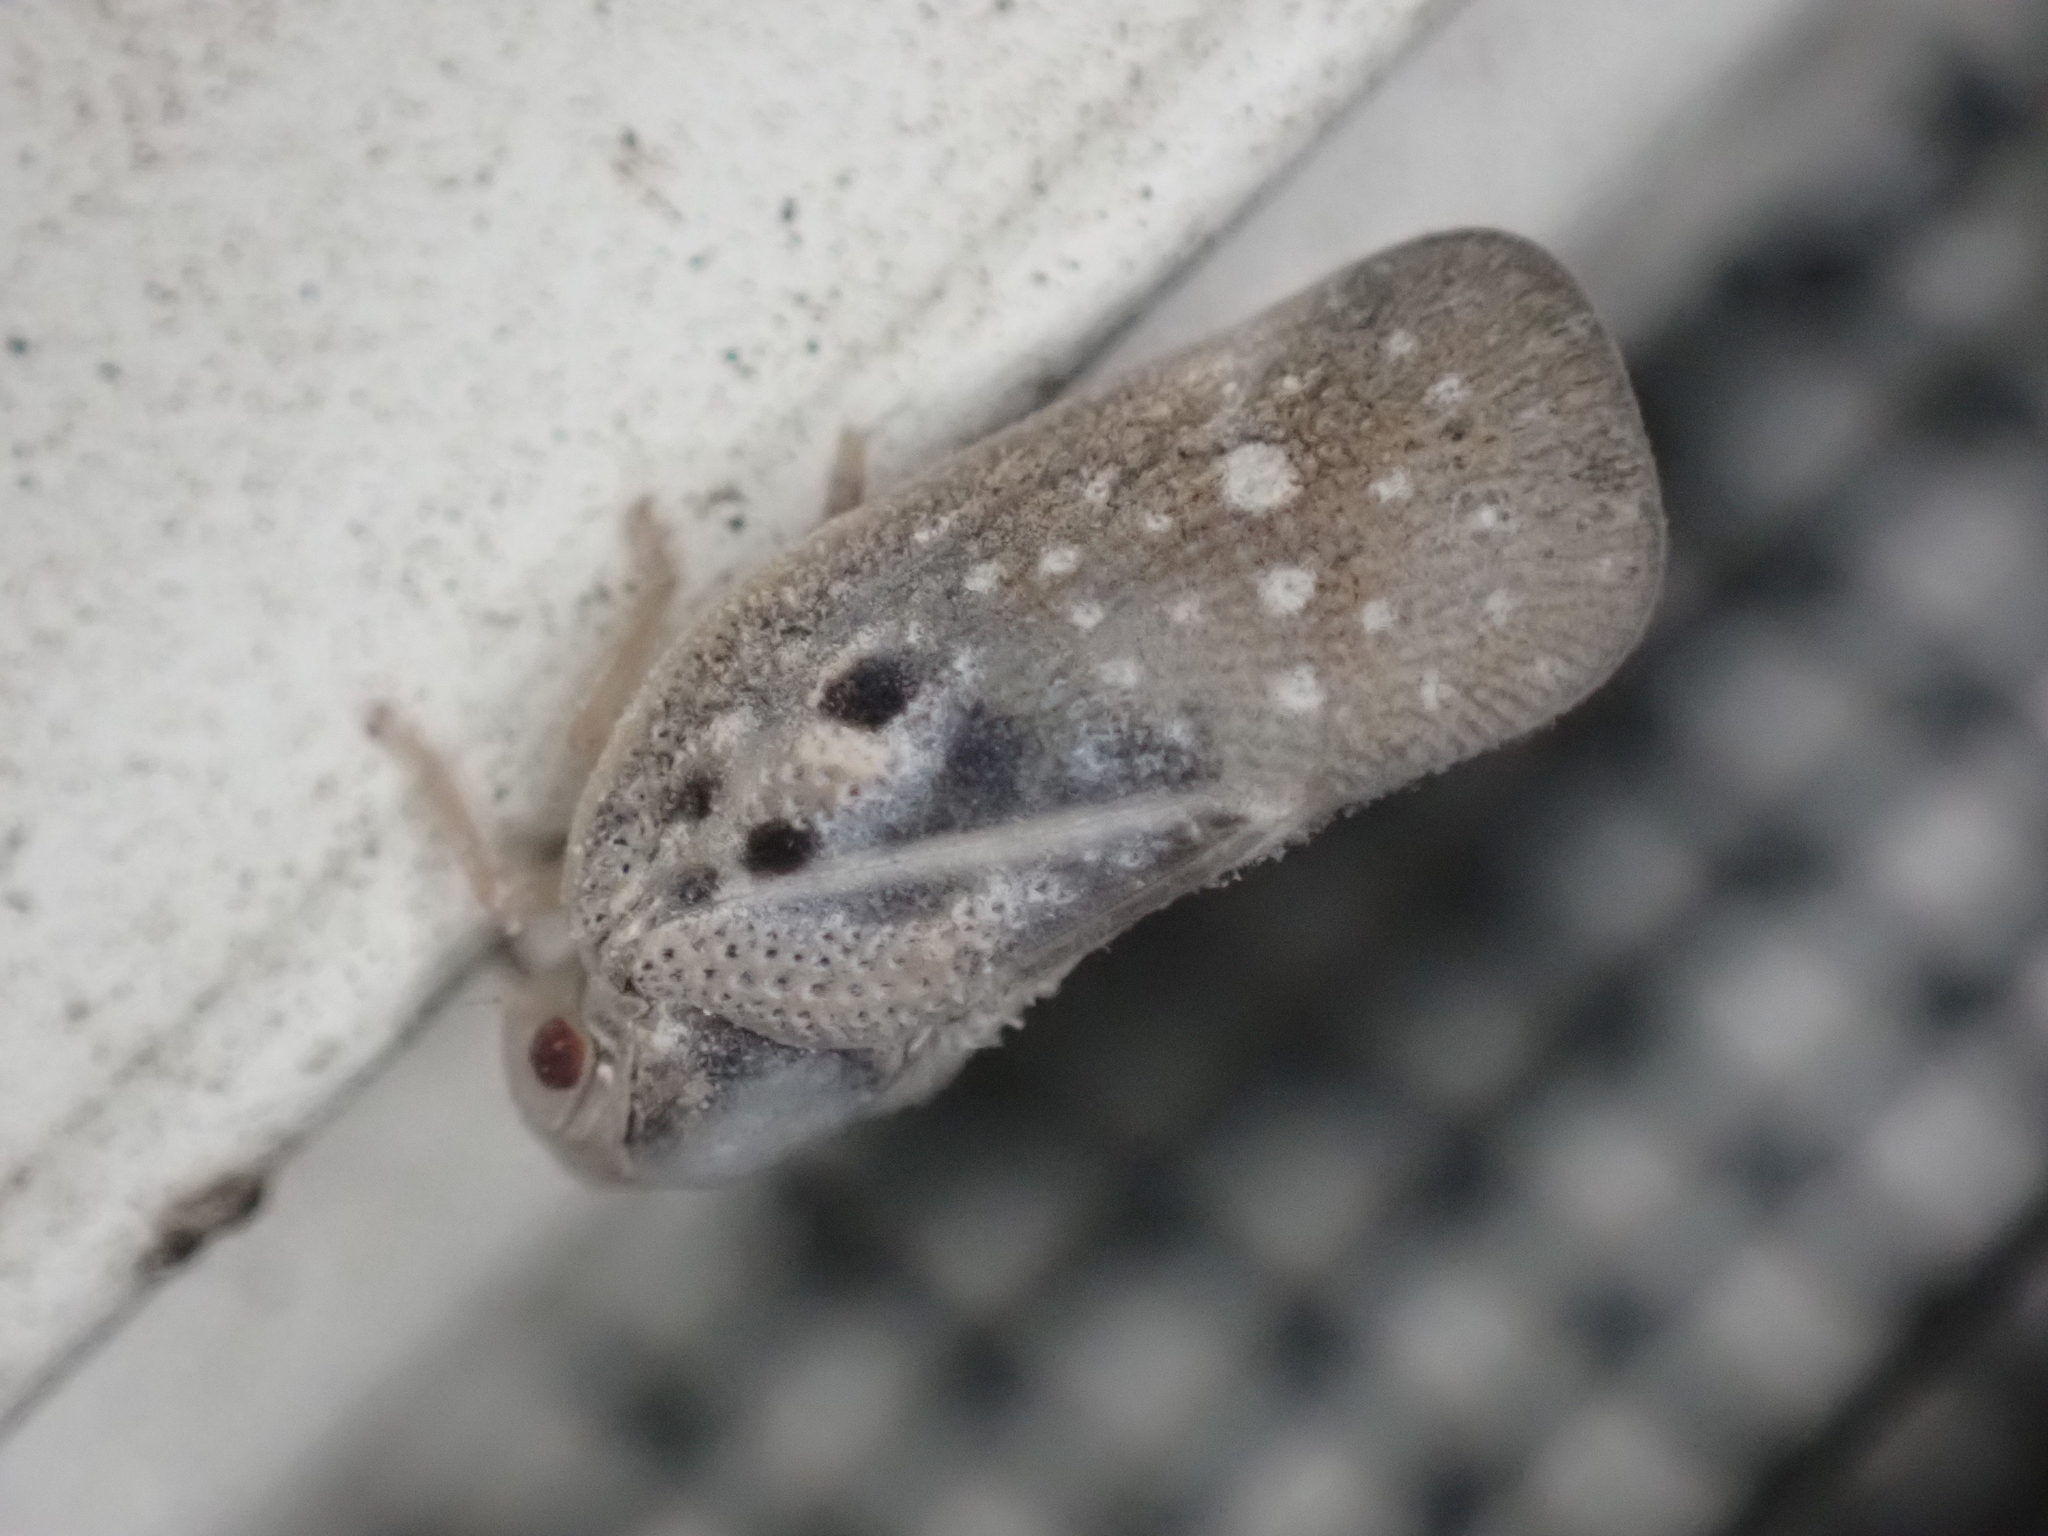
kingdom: Animalia
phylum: Arthropoda
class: Insecta
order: Hemiptera
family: Flatidae
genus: Metcalfa
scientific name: Metcalfa pruinosa
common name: Citrus flatid planthopper
